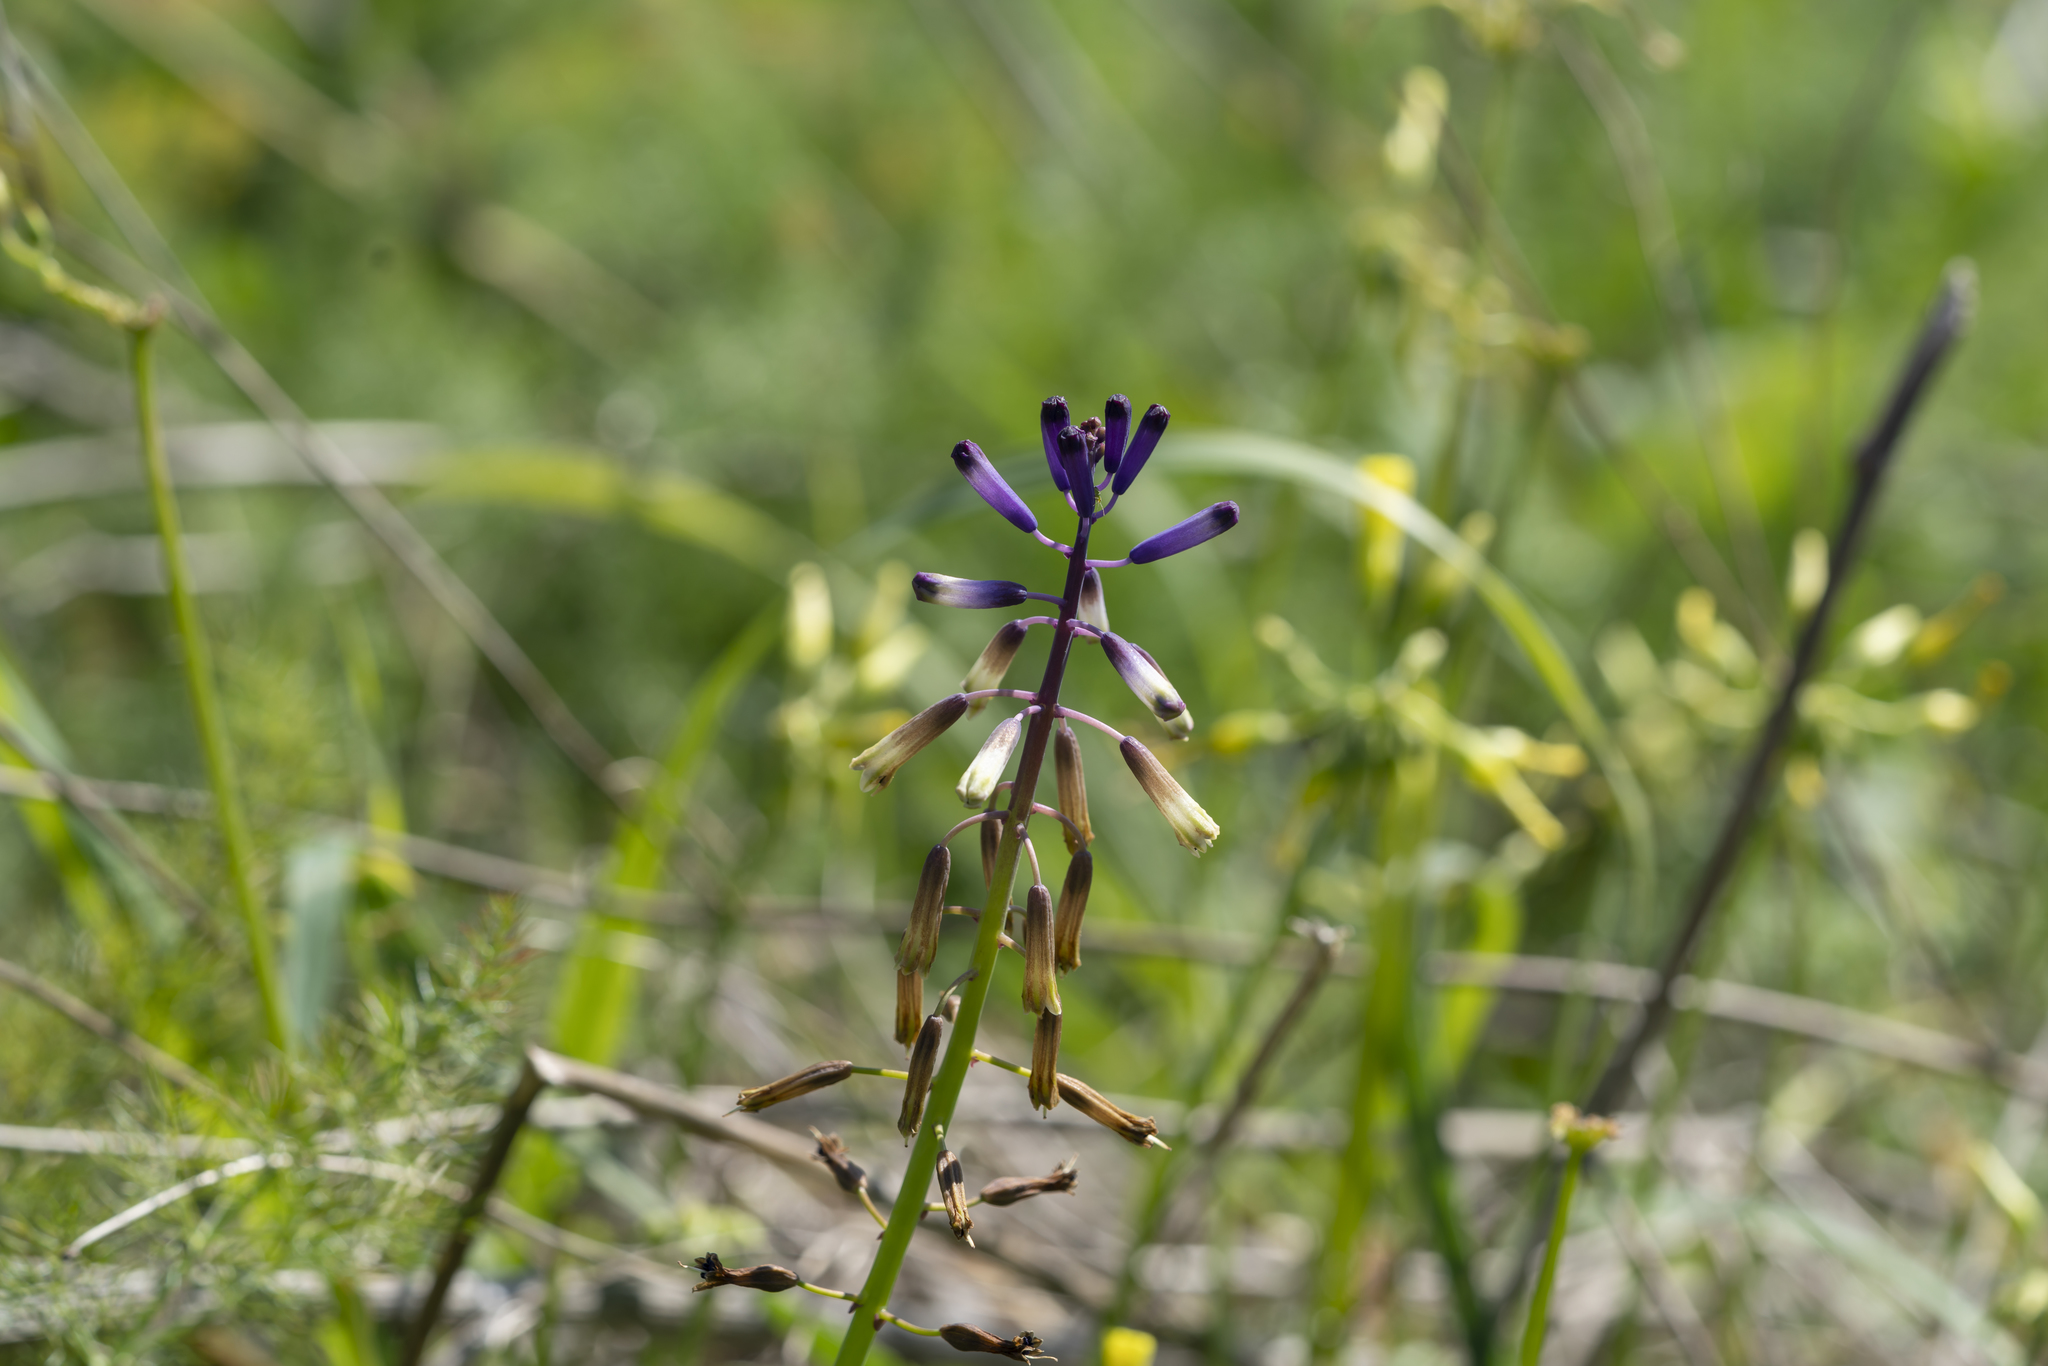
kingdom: Plantae
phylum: Tracheophyta
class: Liliopsida
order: Asparagales
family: Asparagaceae
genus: Bellevalia
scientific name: Bellevalia trifoliata
